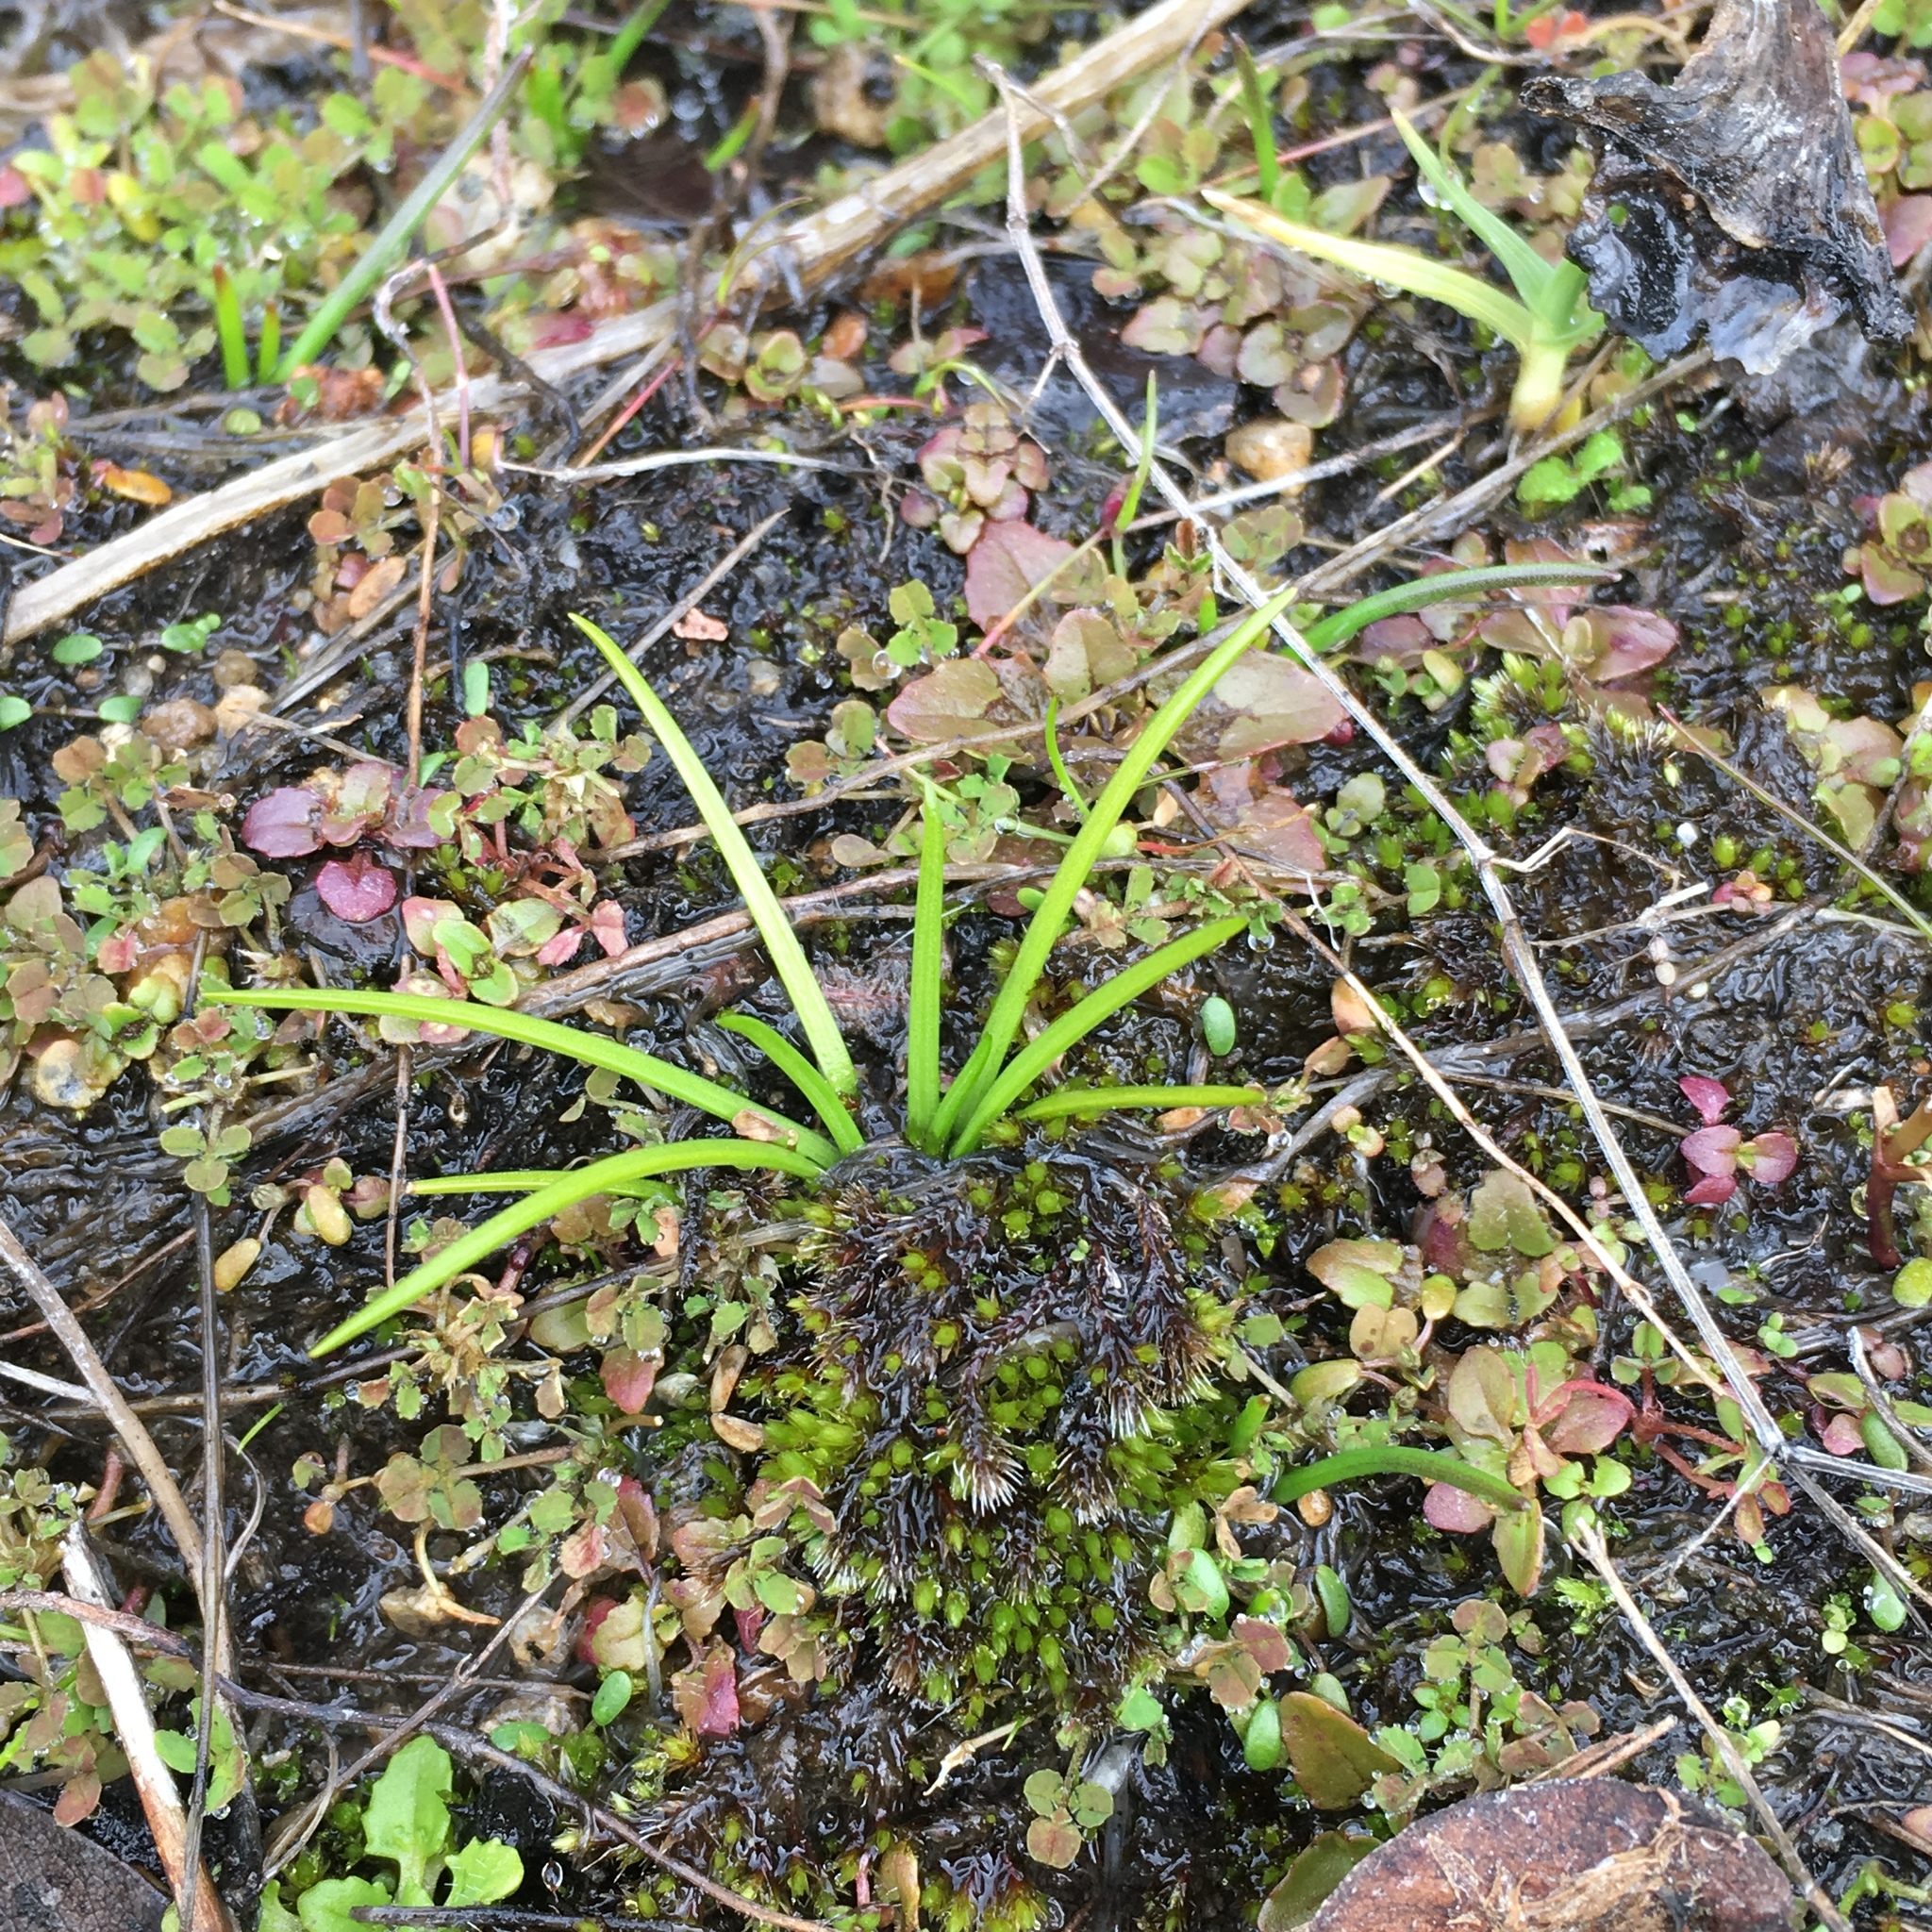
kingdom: Plantae
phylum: Tracheophyta
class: Lycopodiopsida
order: Isoetales
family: Isoetaceae
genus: Isoetes
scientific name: Isoetes nuttallii
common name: Nuttall's quillwort
